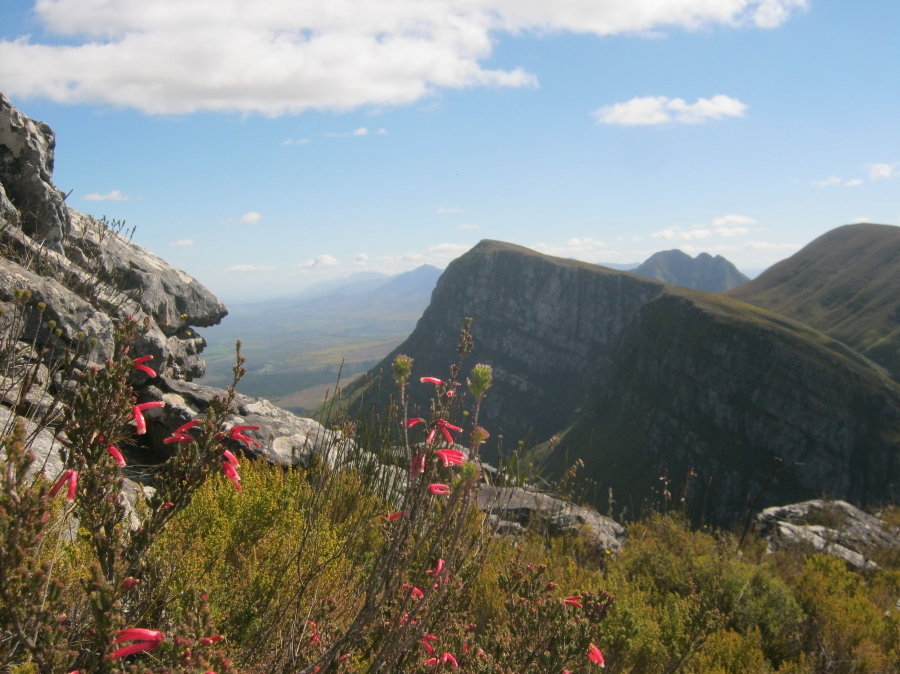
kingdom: Plantae
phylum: Tracheophyta
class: Magnoliopsida
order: Ericales
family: Ericaceae
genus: Erica
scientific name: Erica versicolor
